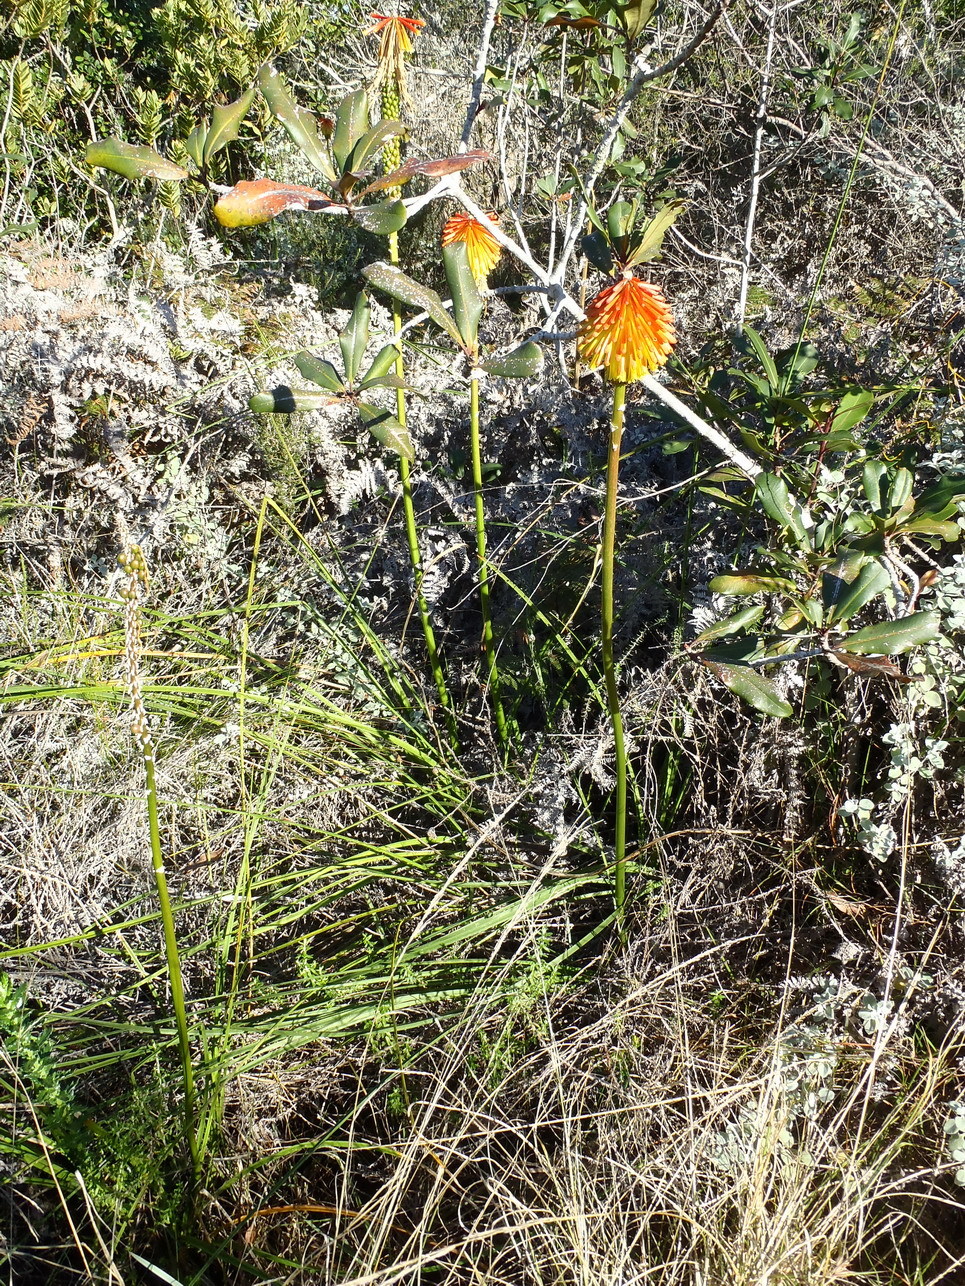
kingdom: Plantae
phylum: Tracheophyta
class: Liliopsida
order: Asparagales
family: Asphodelaceae
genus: Kniphofia
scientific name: Kniphofia uvaria
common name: Red-hot-poker
